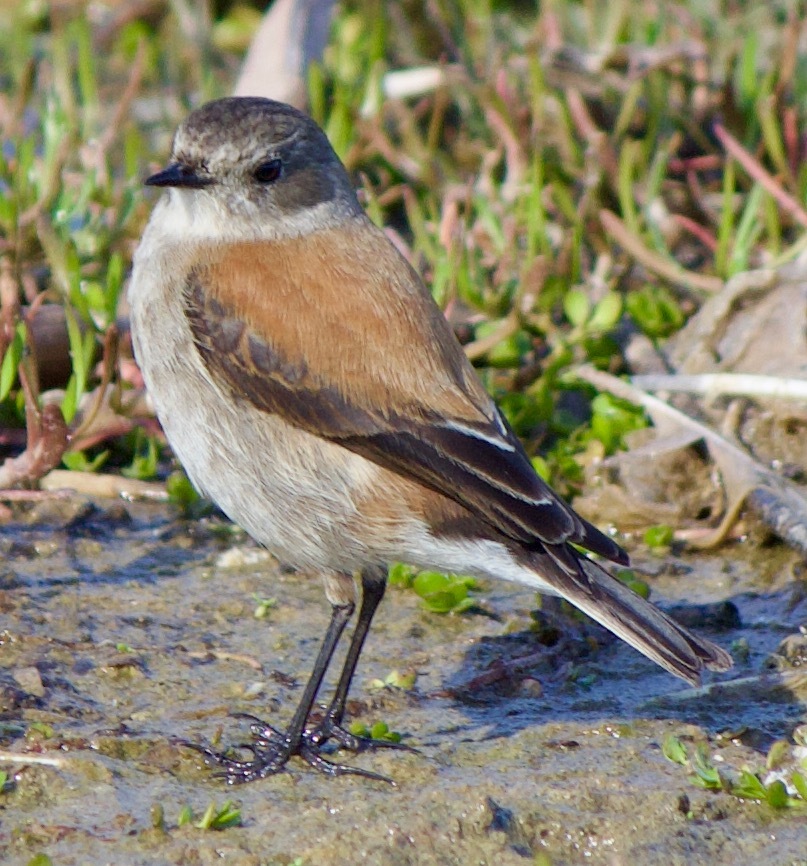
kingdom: Animalia
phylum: Chordata
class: Aves
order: Passeriformes
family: Tyrannidae
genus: Lessonia
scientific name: Lessonia rufa
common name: Austral negrito
